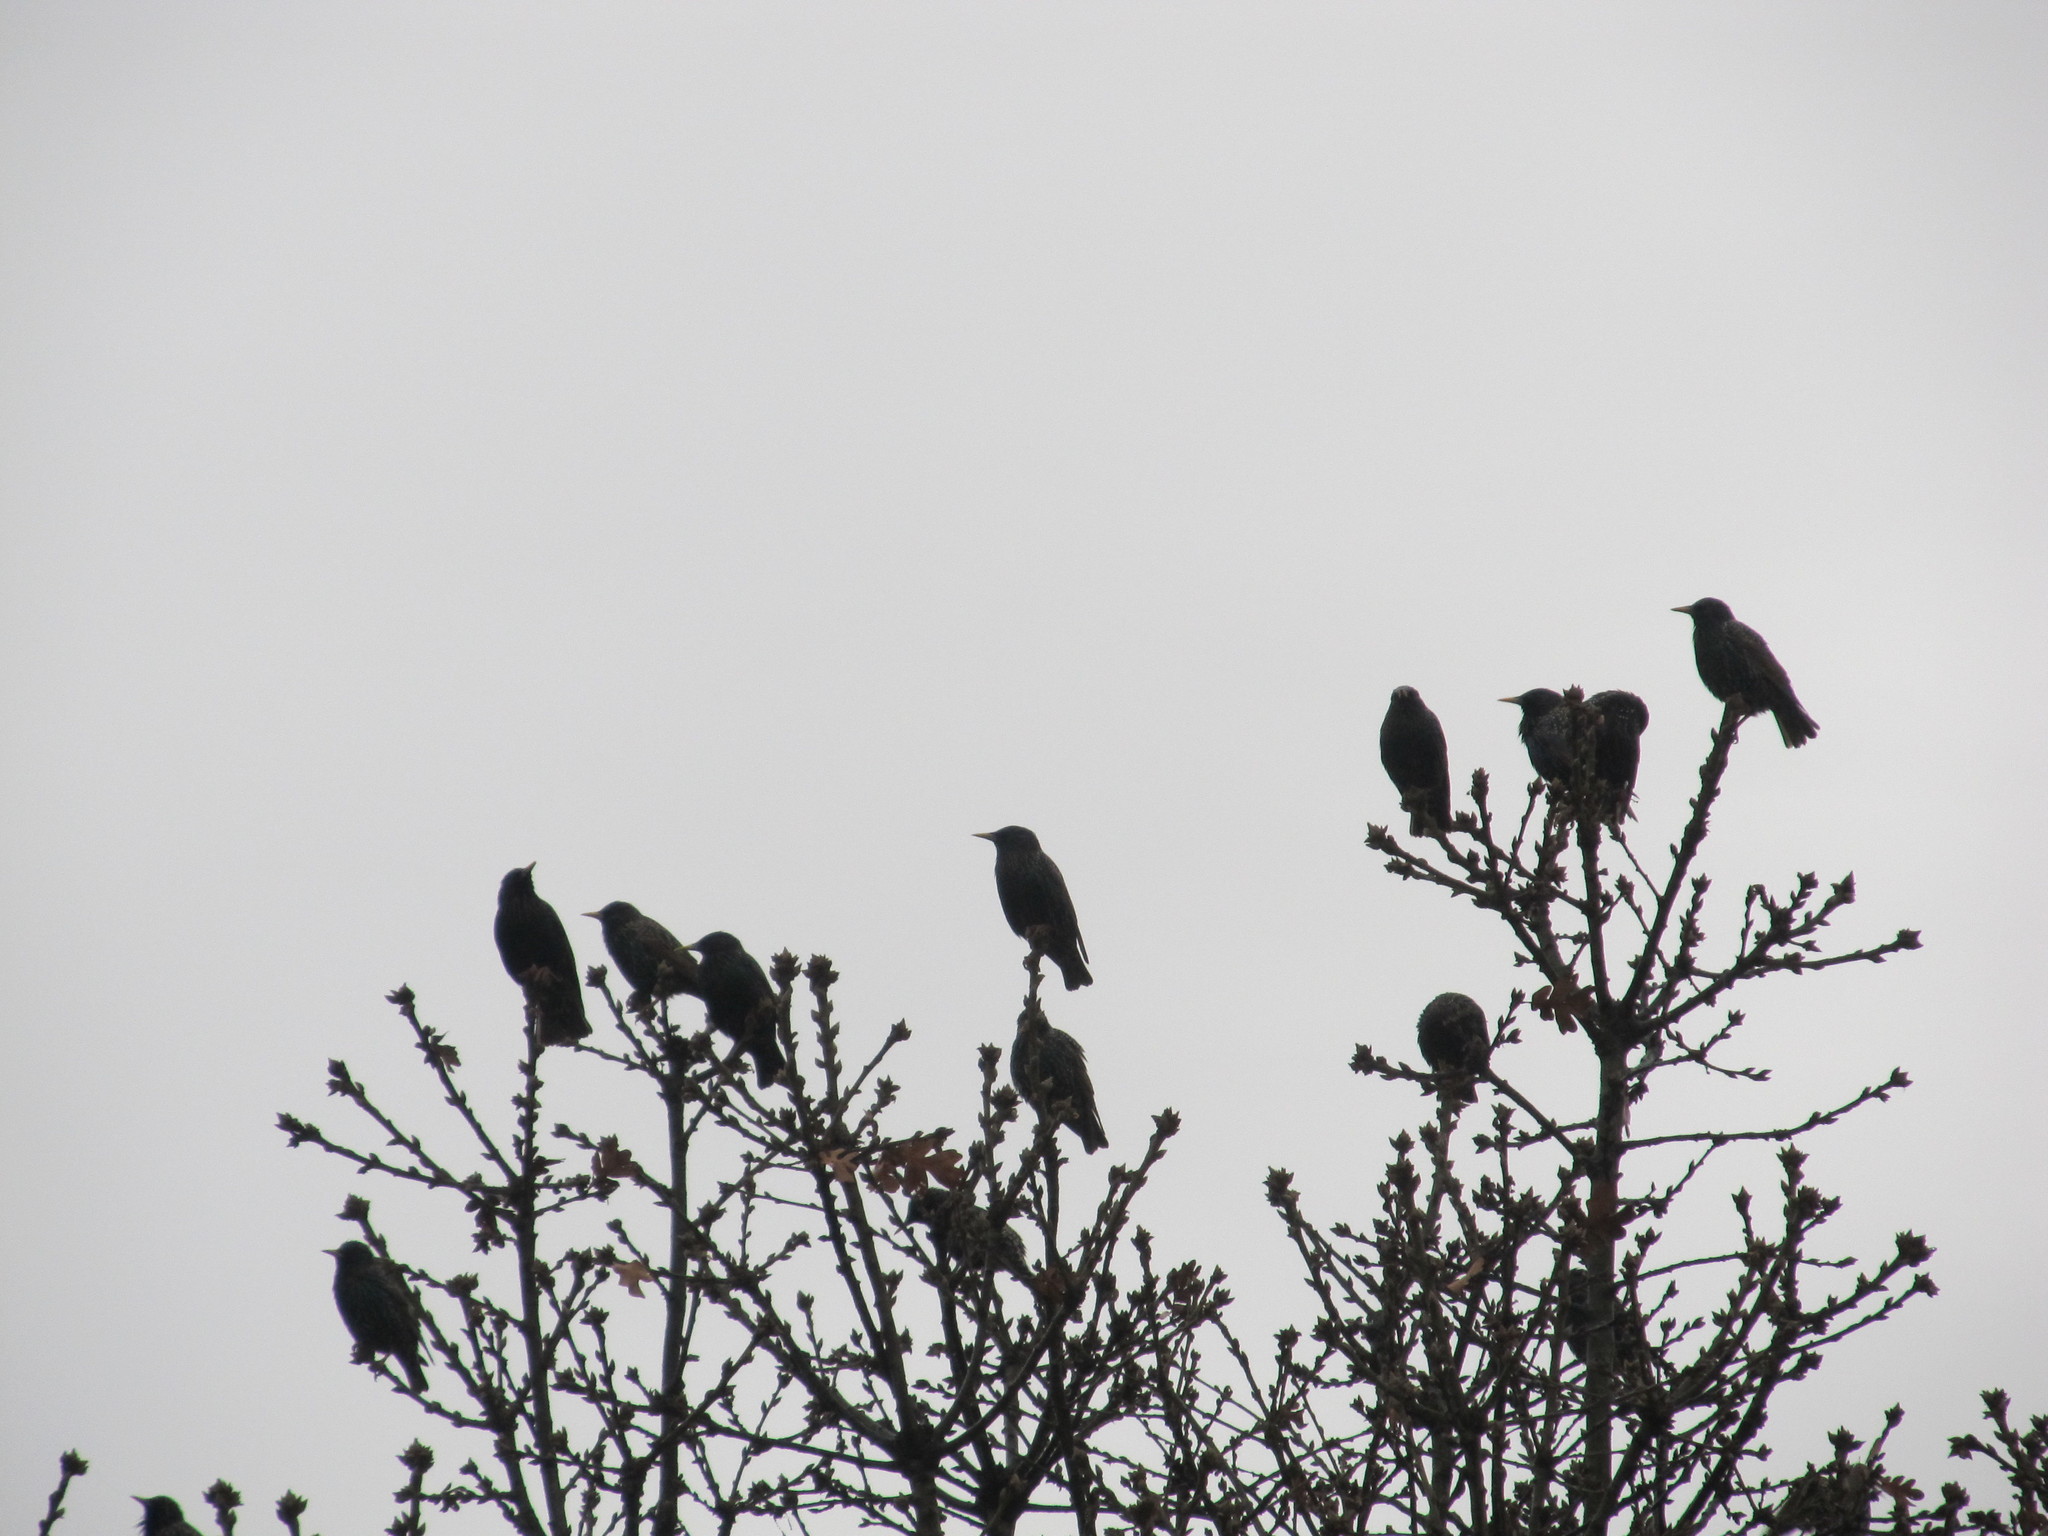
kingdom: Animalia
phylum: Chordata
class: Aves
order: Passeriformes
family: Sturnidae
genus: Sturnus
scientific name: Sturnus vulgaris
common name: Common starling
